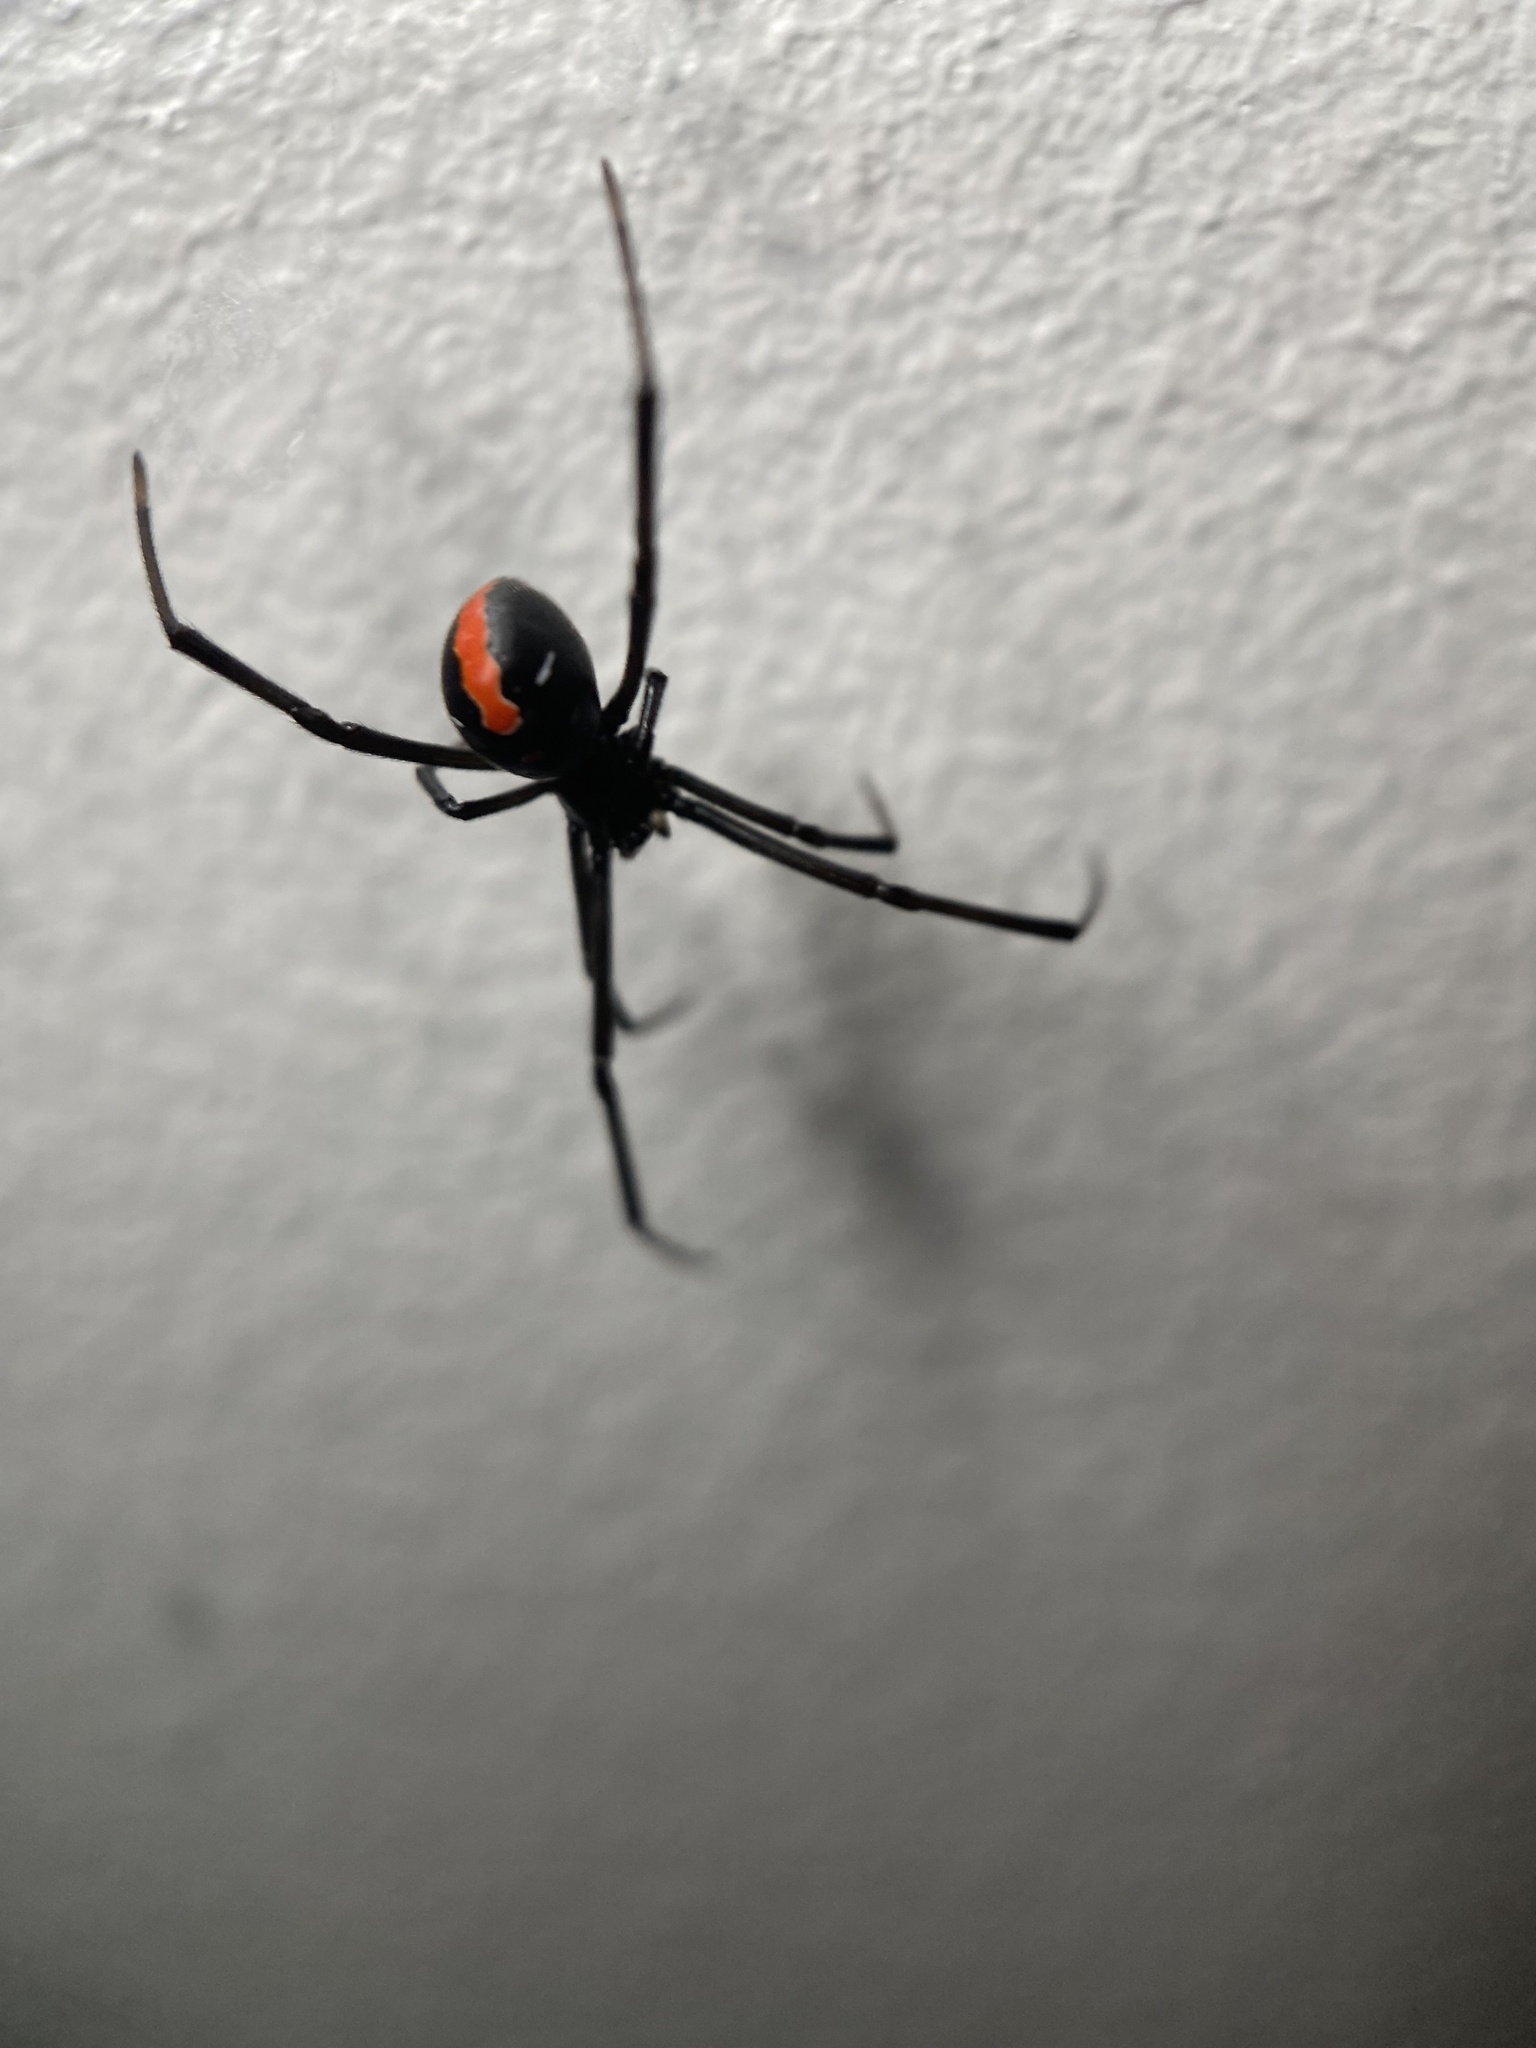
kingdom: Animalia
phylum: Arthropoda
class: Arachnida
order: Araneae
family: Theridiidae
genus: Latrodectus
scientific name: Latrodectus hasselti
